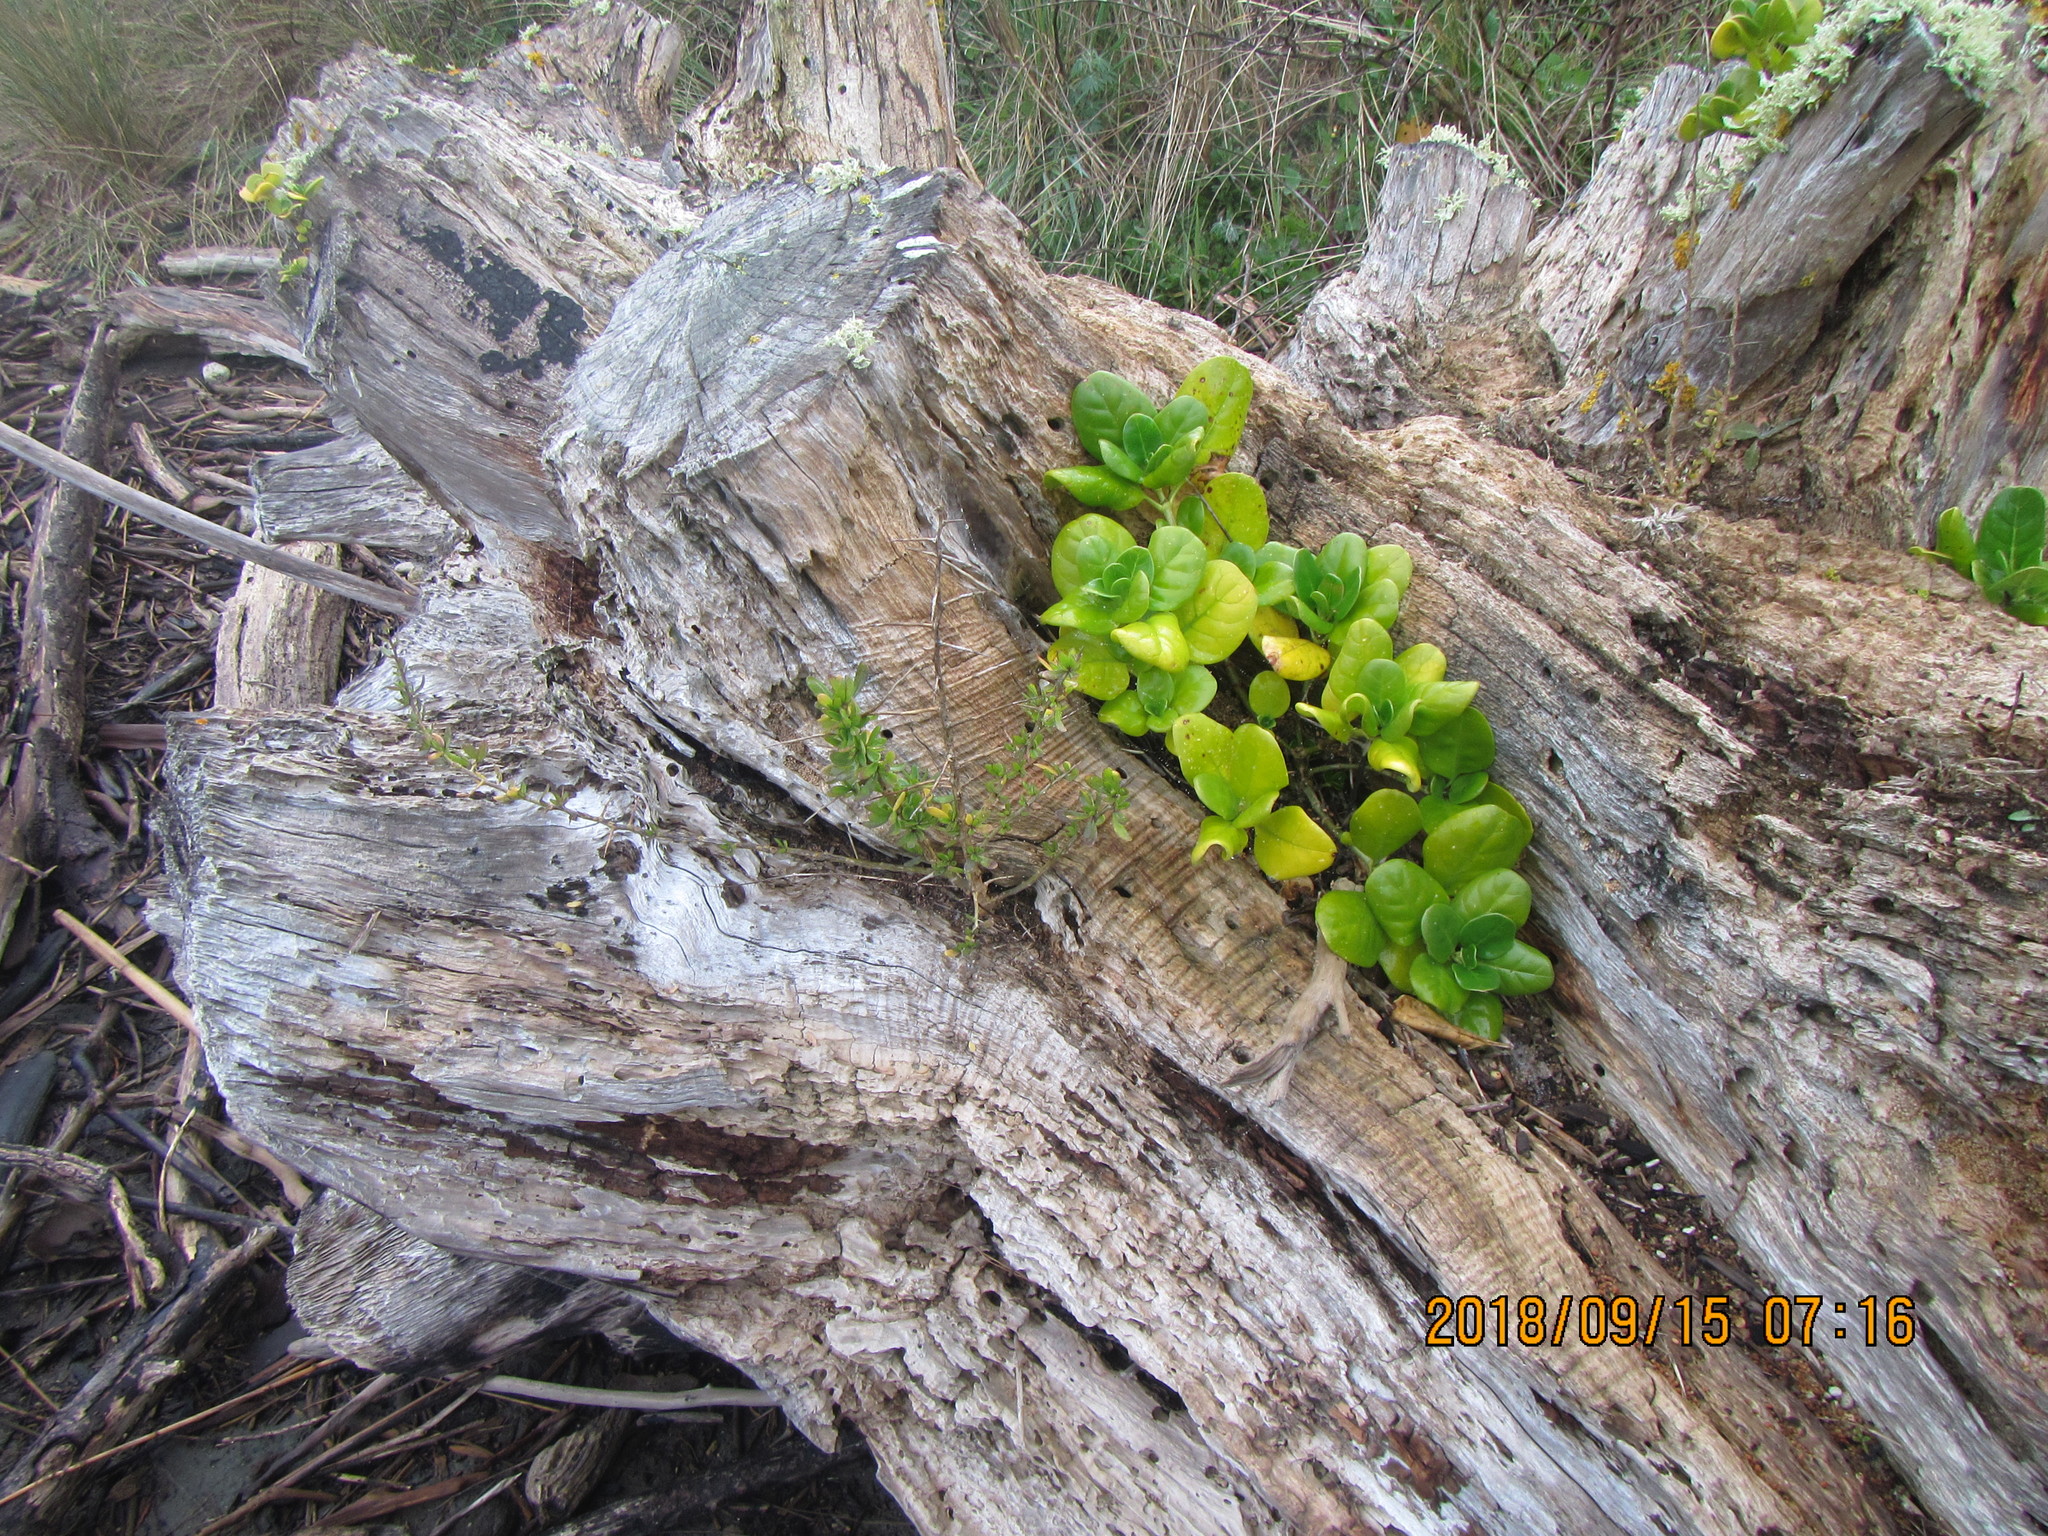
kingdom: Plantae
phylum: Tracheophyta
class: Magnoliopsida
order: Gentianales
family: Rubiaceae
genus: Coprosma
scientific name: Coprosma repens
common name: Tree bedstraw
